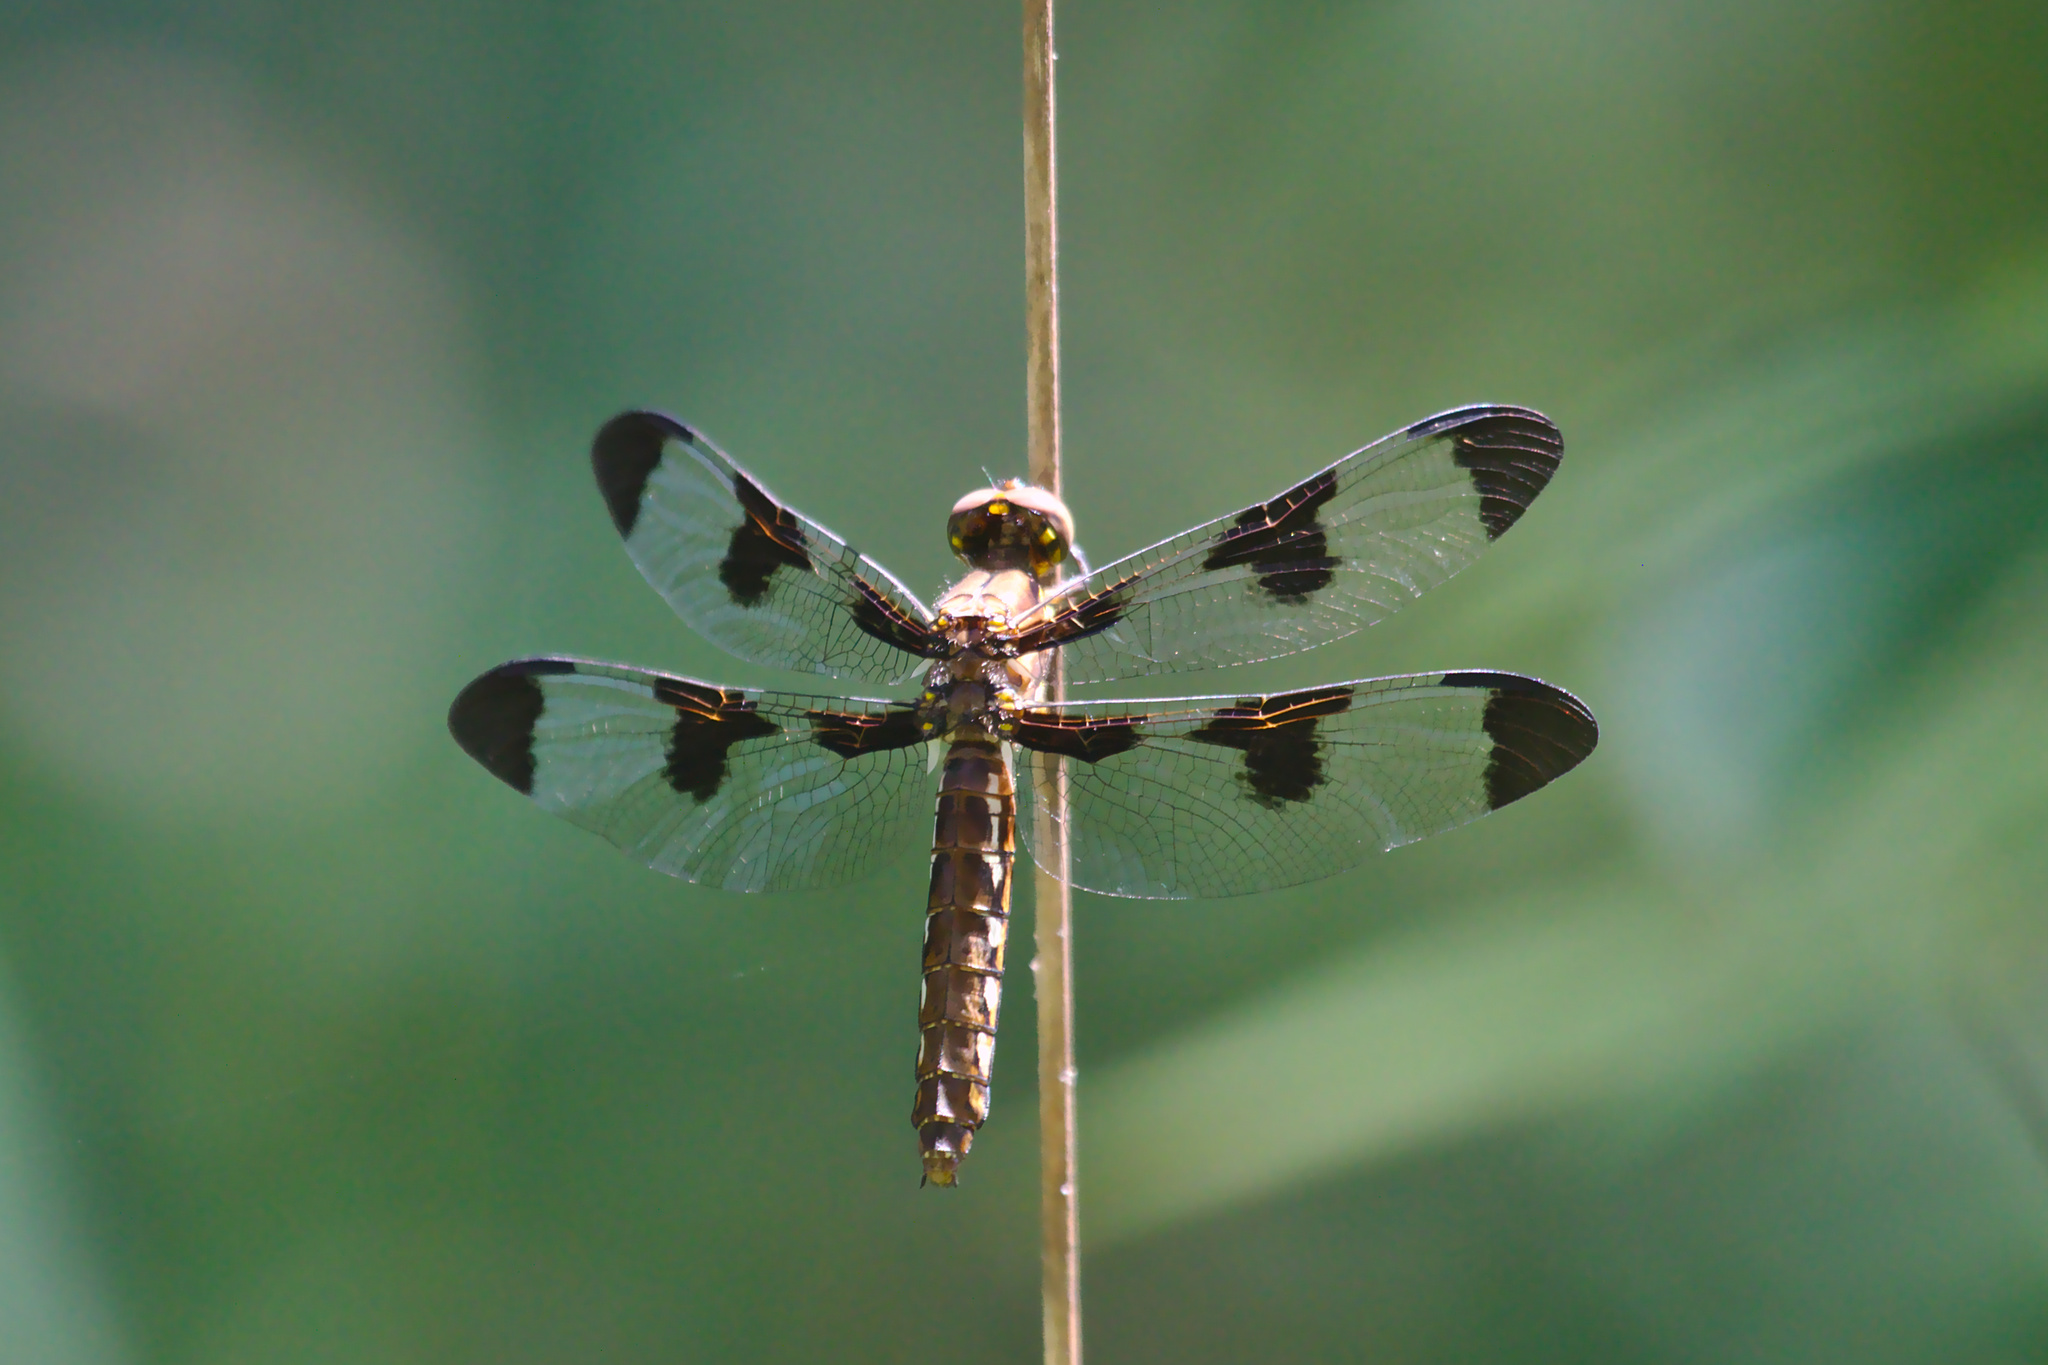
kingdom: Animalia
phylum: Arthropoda
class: Insecta
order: Odonata
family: Libellulidae
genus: Plathemis
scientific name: Plathemis lydia
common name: Common whitetail
